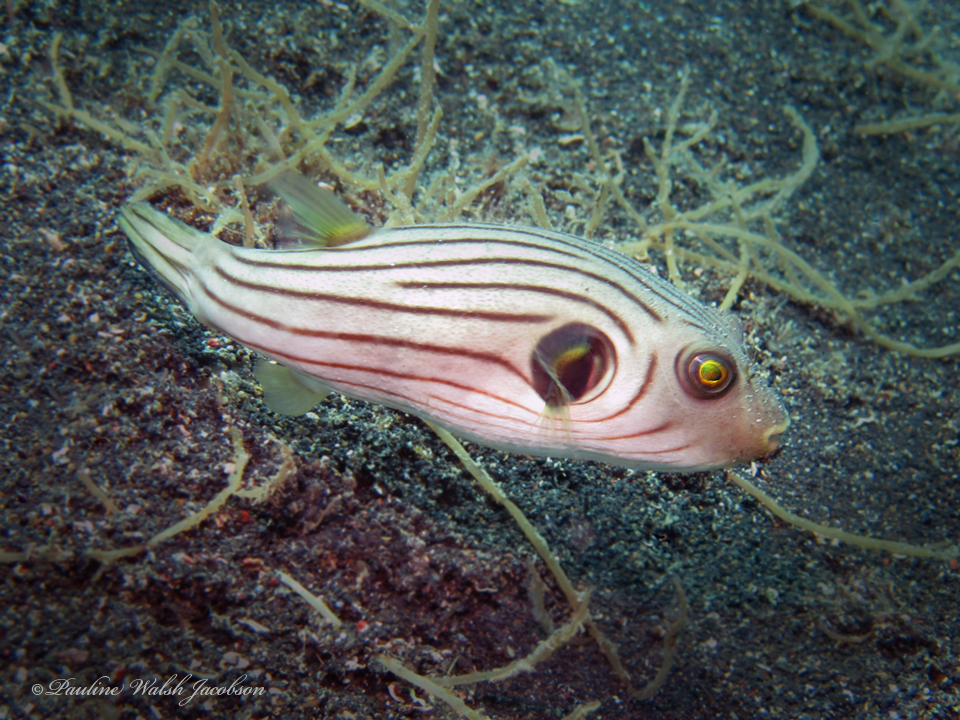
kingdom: Animalia
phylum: Chordata
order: Tetraodontiformes
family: Tetraodontidae
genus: Arothron
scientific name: Arothron manilensis
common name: Narrow-lined puffer
